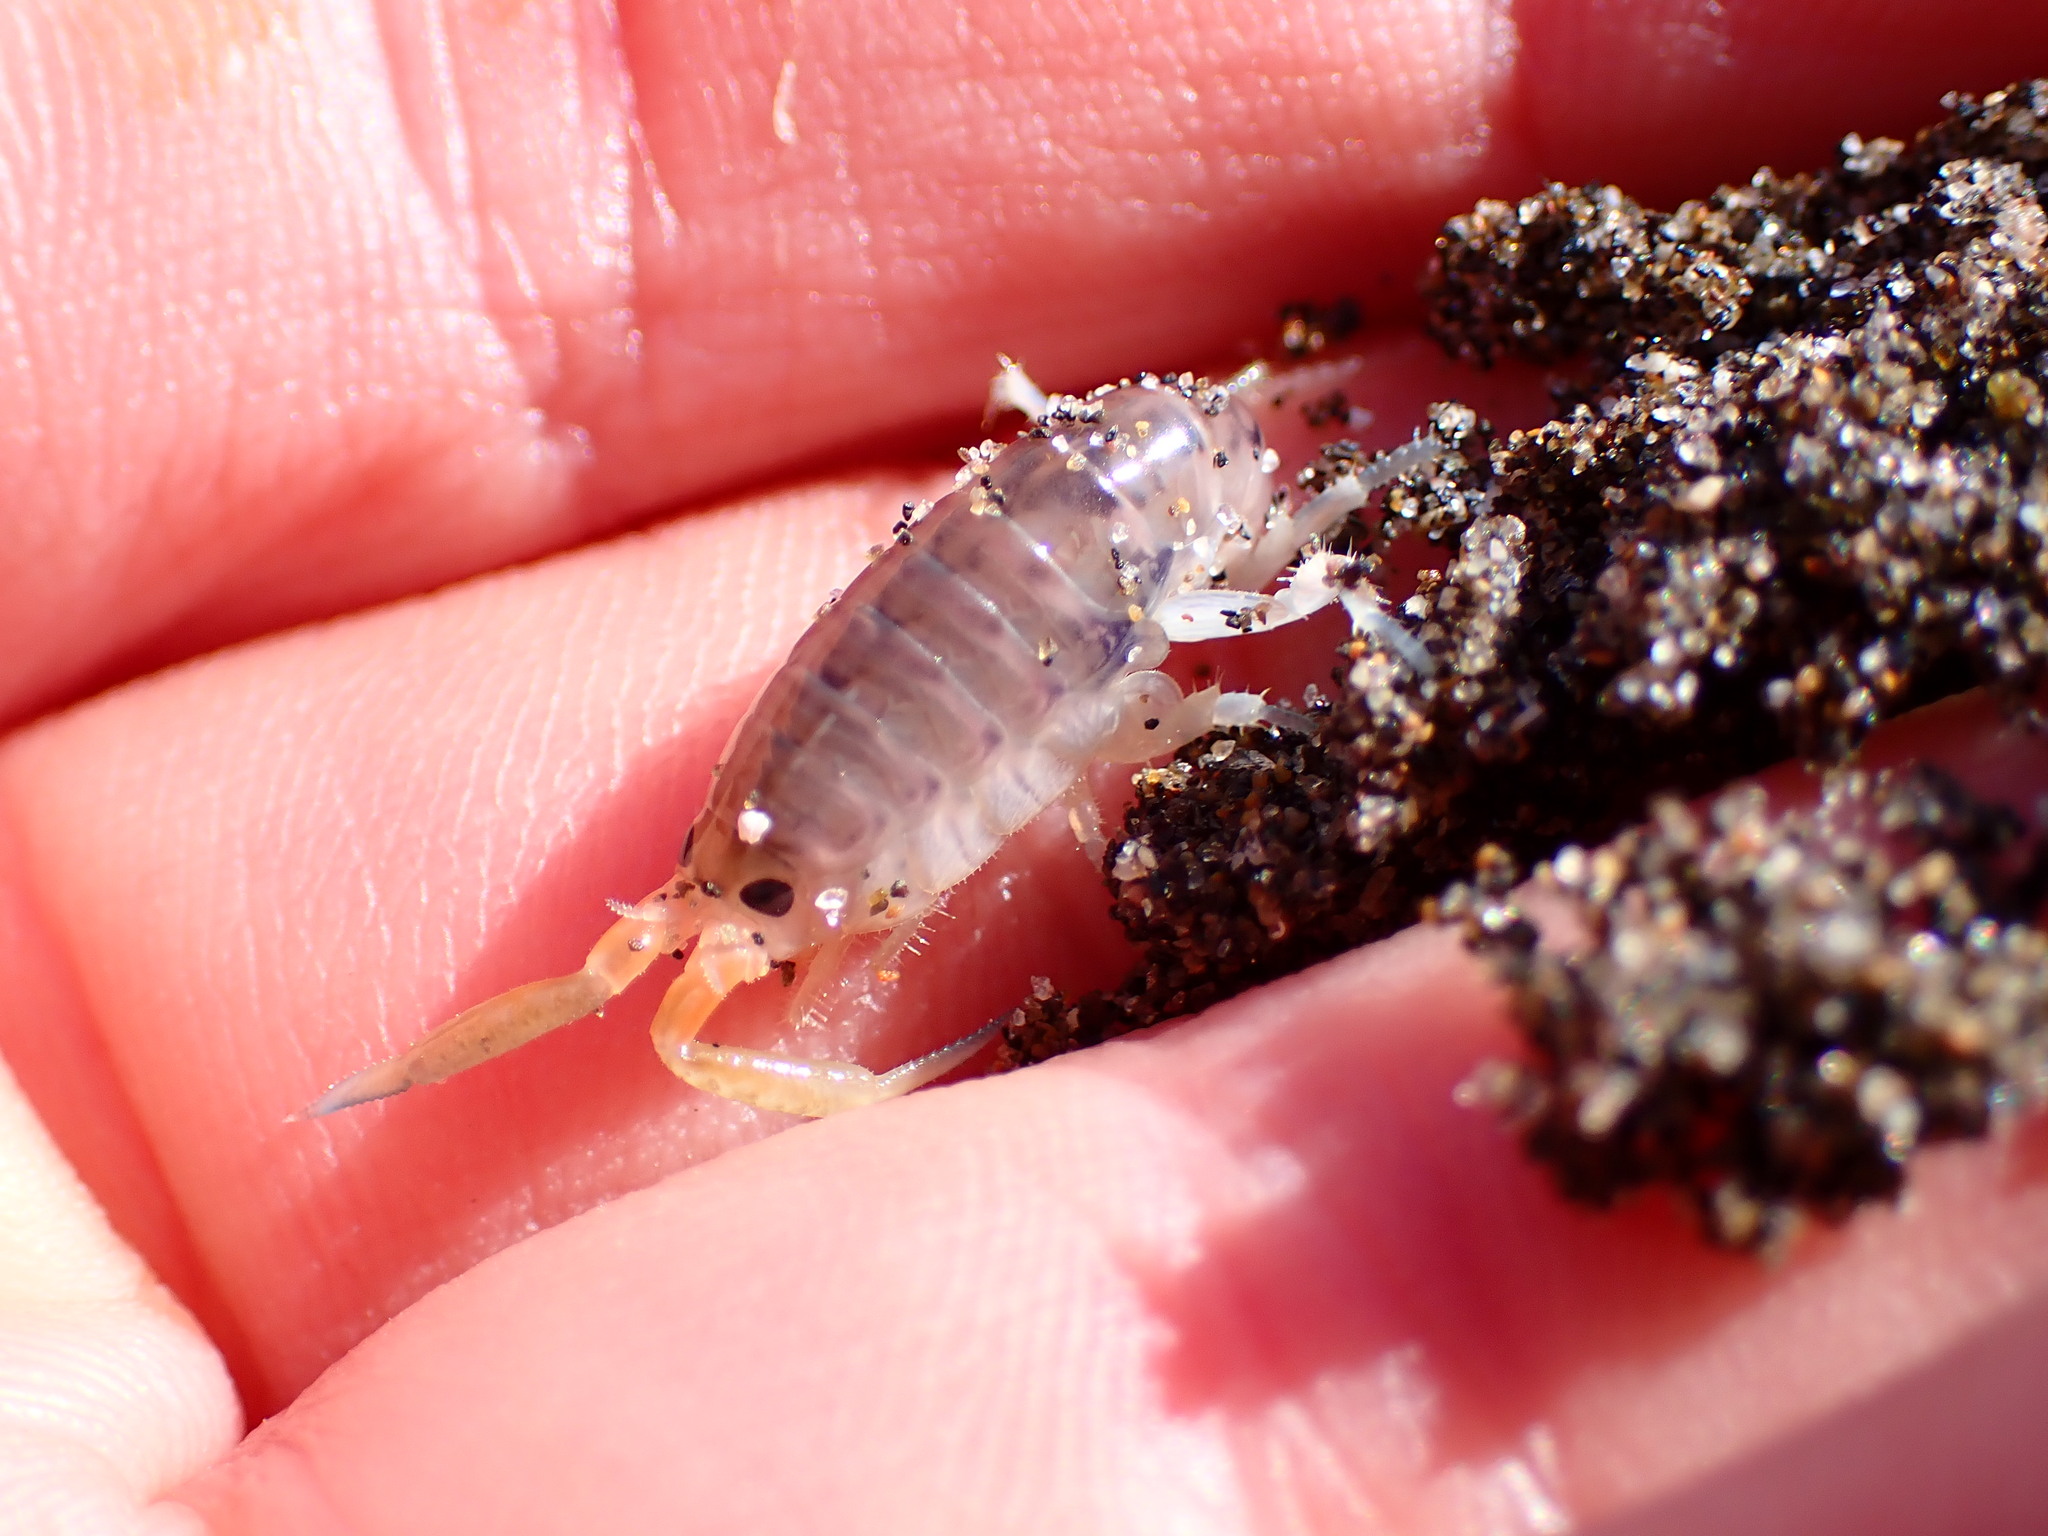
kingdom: Animalia
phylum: Arthropoda
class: Malacostraca
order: Amphipoda
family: Talitridae
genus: Megalorchestia
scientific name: Megalorchestia corniculata
